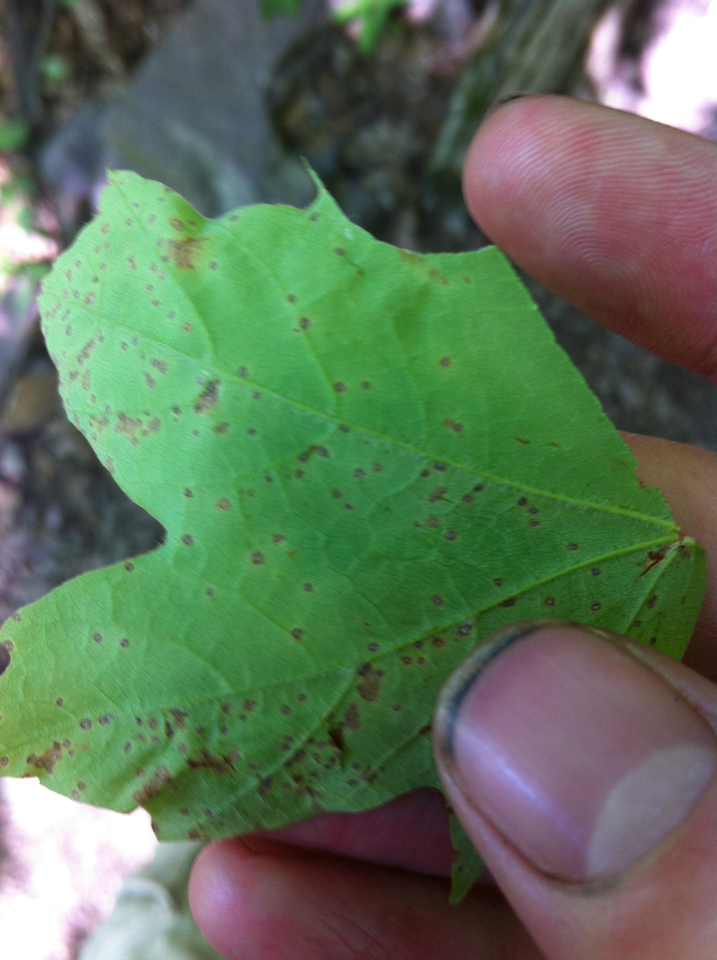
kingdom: Plantae
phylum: Tracheophyta
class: Magnoliopsida
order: Sapindales
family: Sapindaceae
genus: Acer
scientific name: Acer nigrum
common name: Black maple
